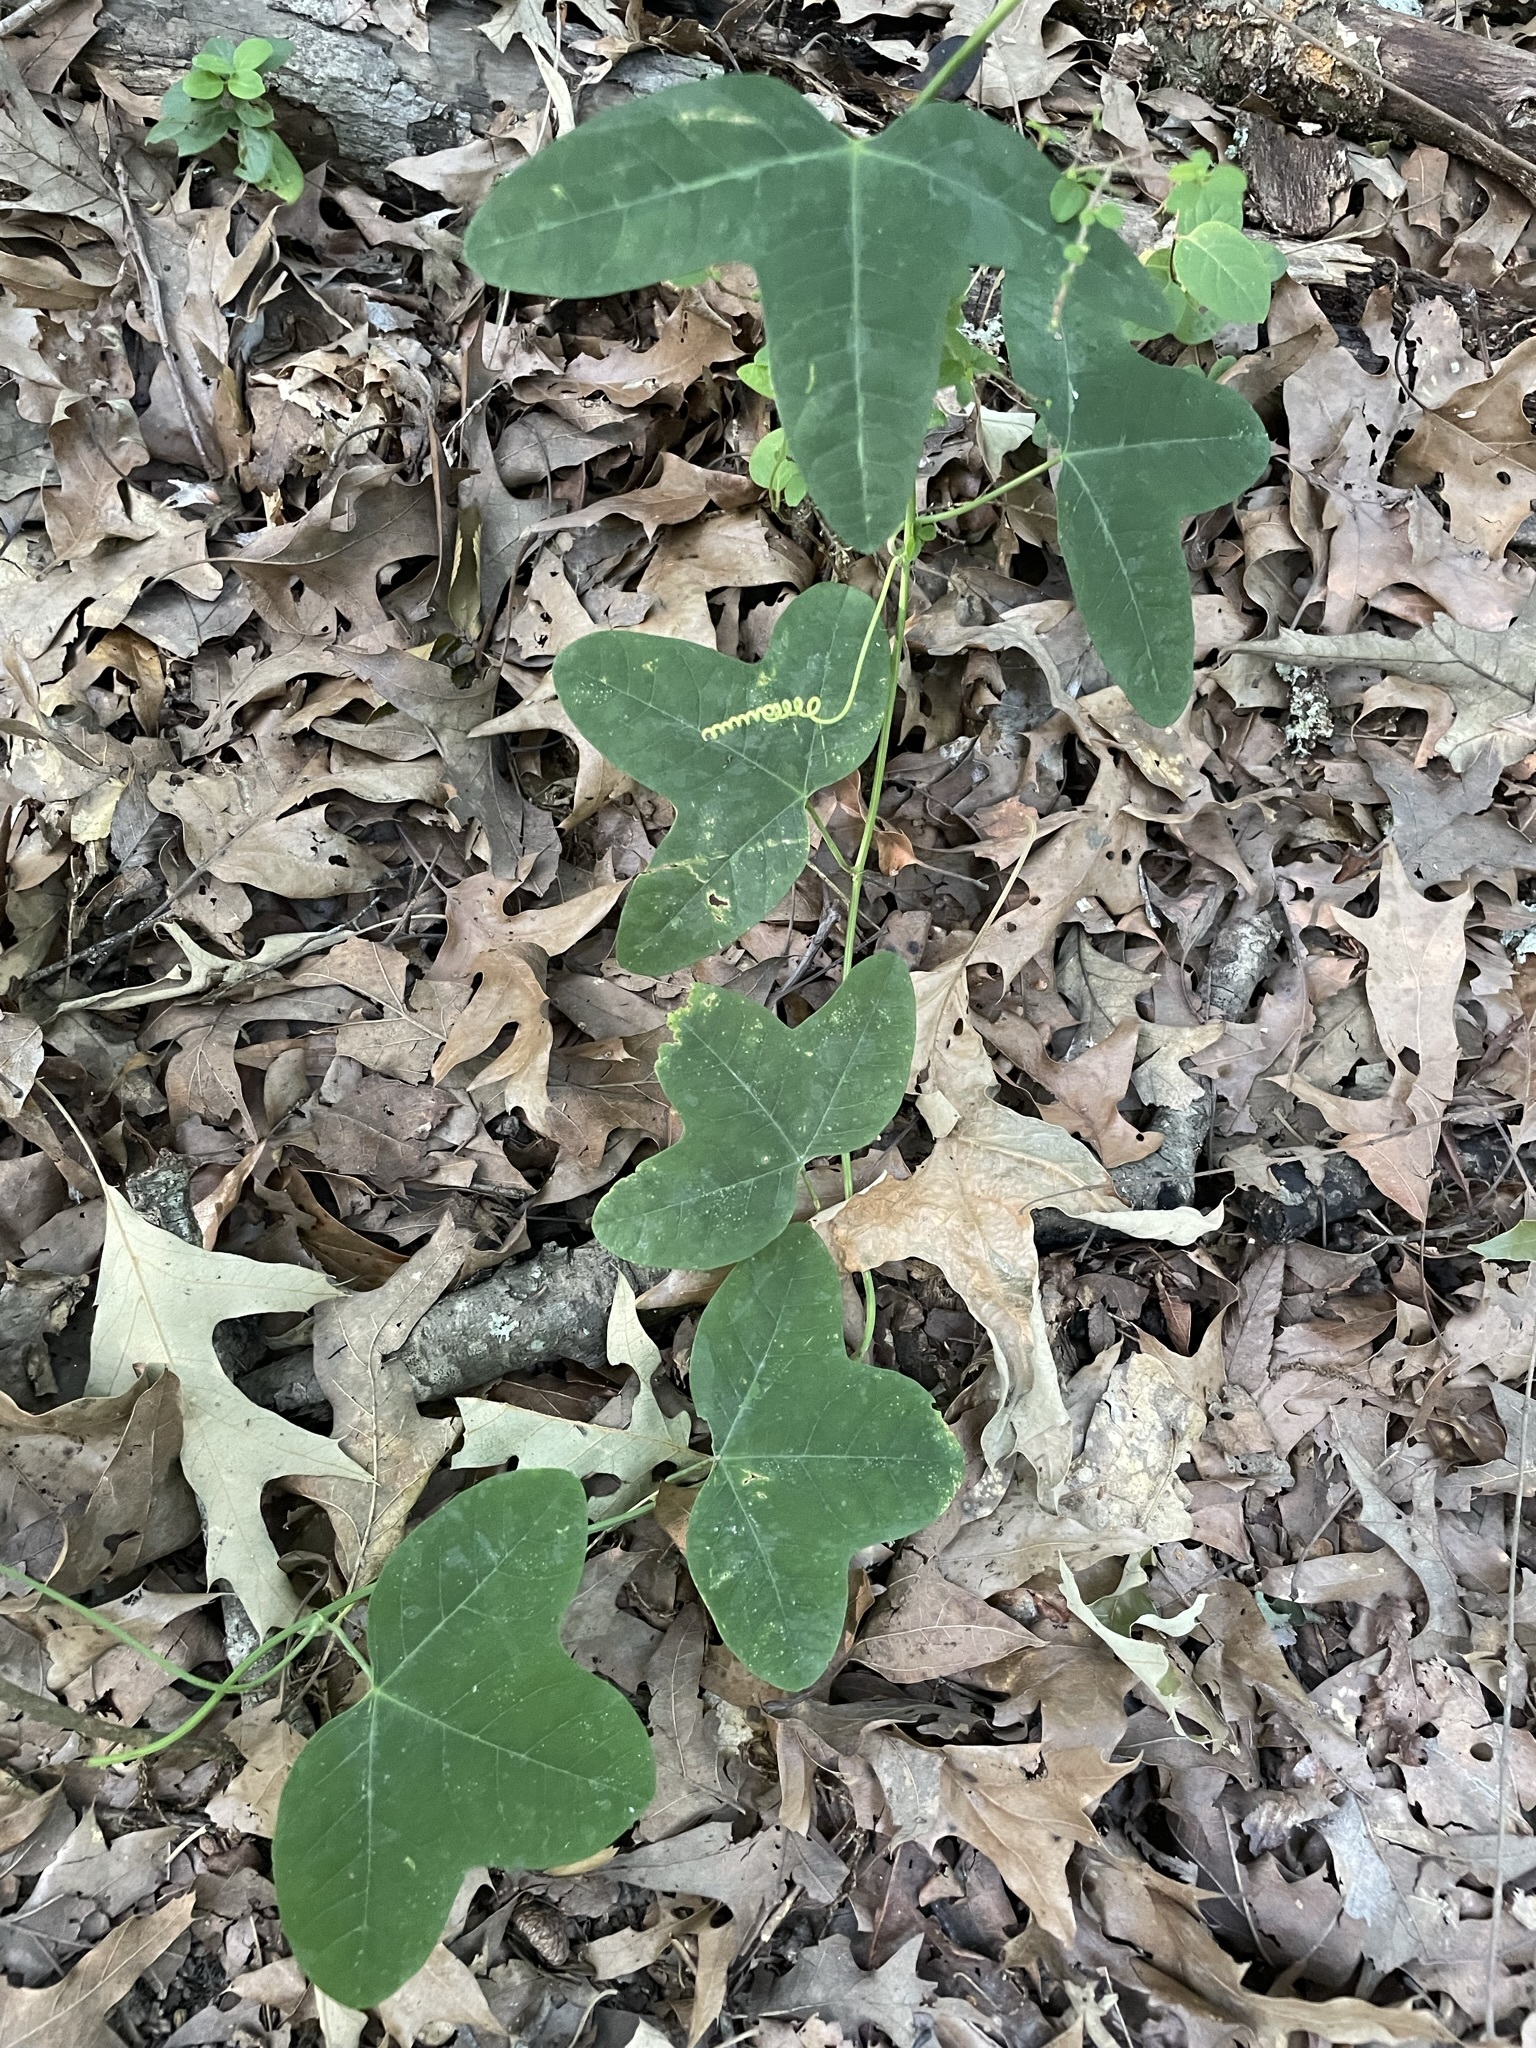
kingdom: Plantae
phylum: Tracheophyta
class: Magnoliopsida
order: Malpighiales
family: Passifloraceae
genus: Passiflora
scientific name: Passiflora lutea
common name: Yellow passionflower
